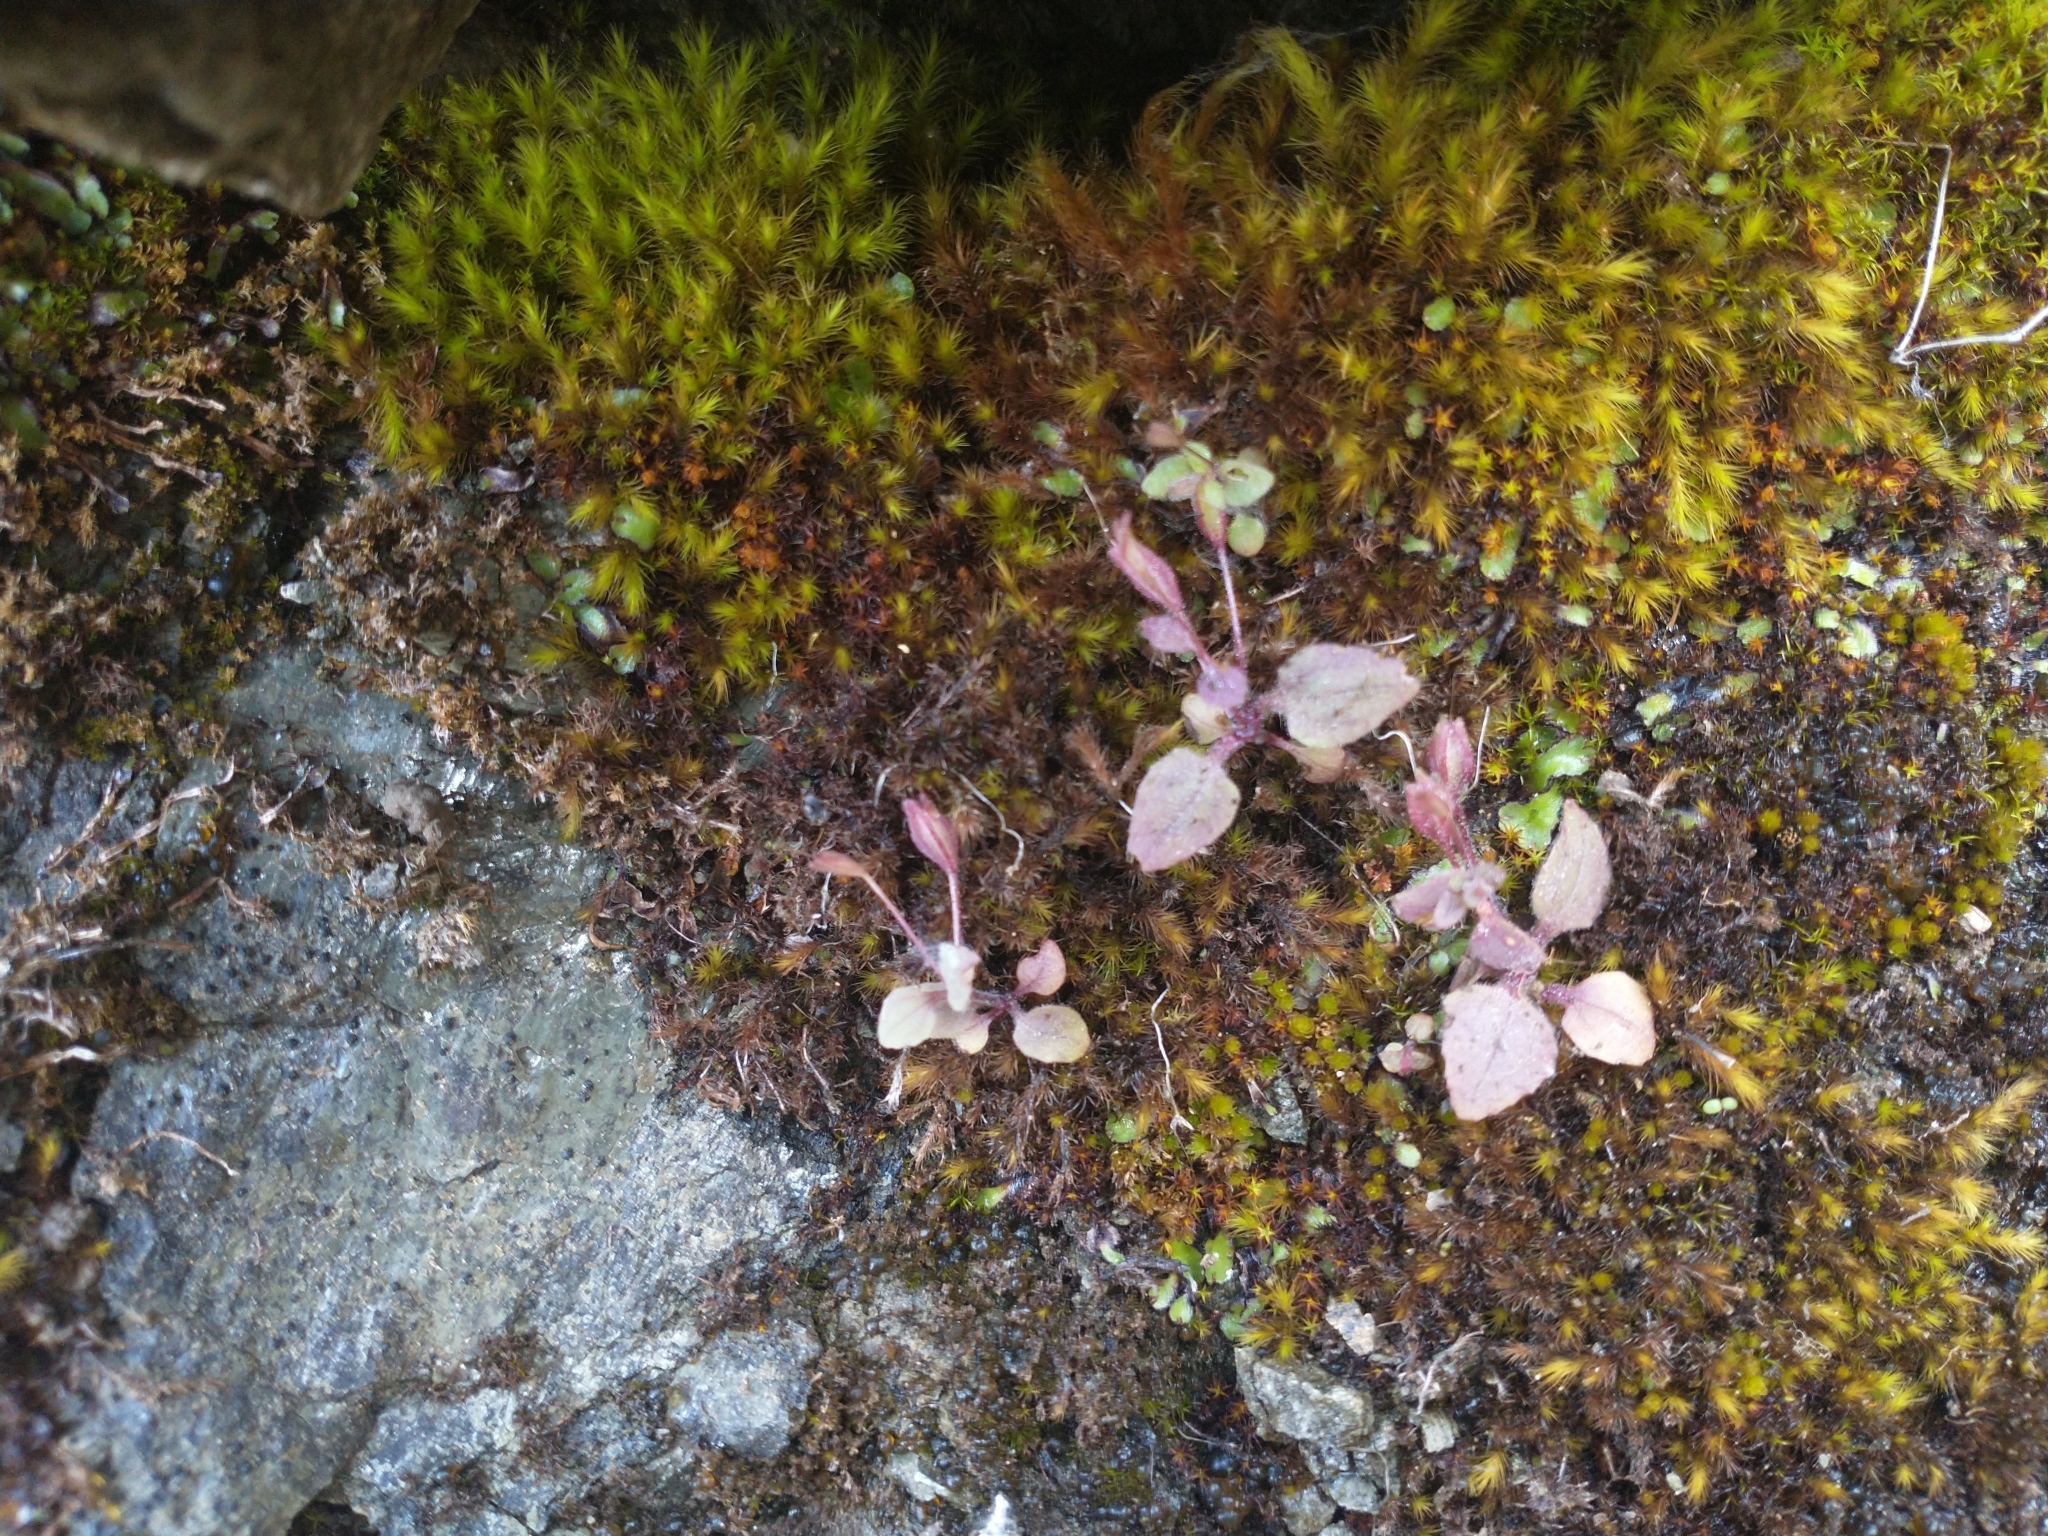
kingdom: Plantae
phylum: Tracheophyta
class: Magnoliopsida
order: Lamiales
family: Phrymaceae
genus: Erythranthe
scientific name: Erythranthe alsinoides
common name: Chickweed monkeyflower
